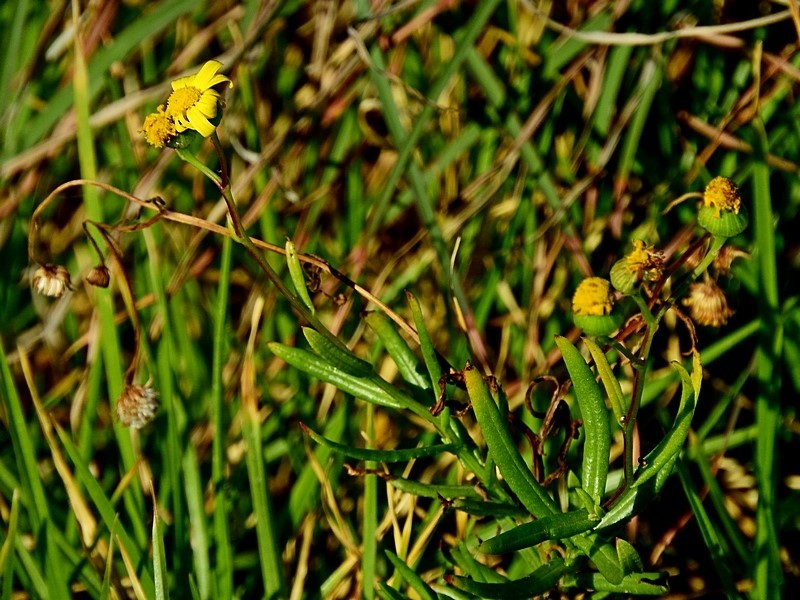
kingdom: Plantae
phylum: Tracheophyta
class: Magnoliopsida
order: Asterales
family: Asteraceae
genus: Senecio
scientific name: Senecio madagascariensis
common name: Madagascar ragwort
